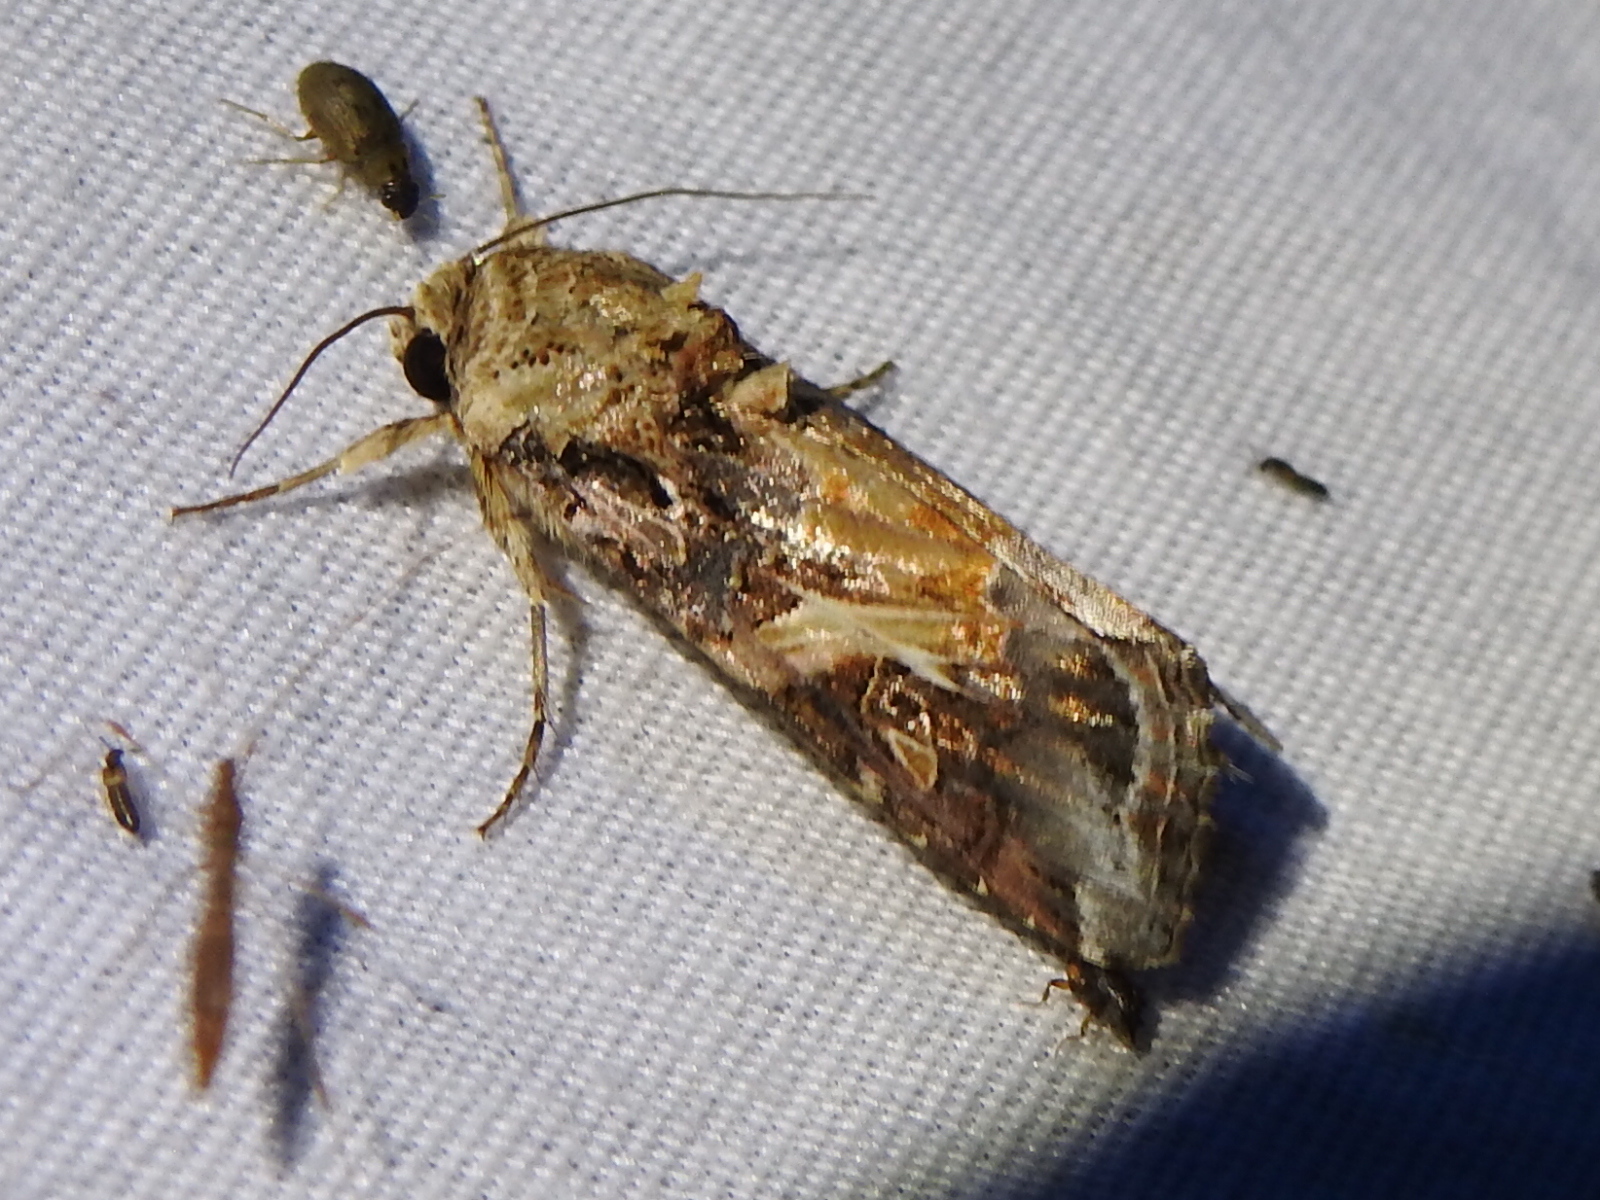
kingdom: Animalia
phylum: Arthropoda
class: Insecta
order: Lepidoptera
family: Noctuidae
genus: Spodoptera
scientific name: Spodoptera ornithogalli
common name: Yellow-striped armyworm
